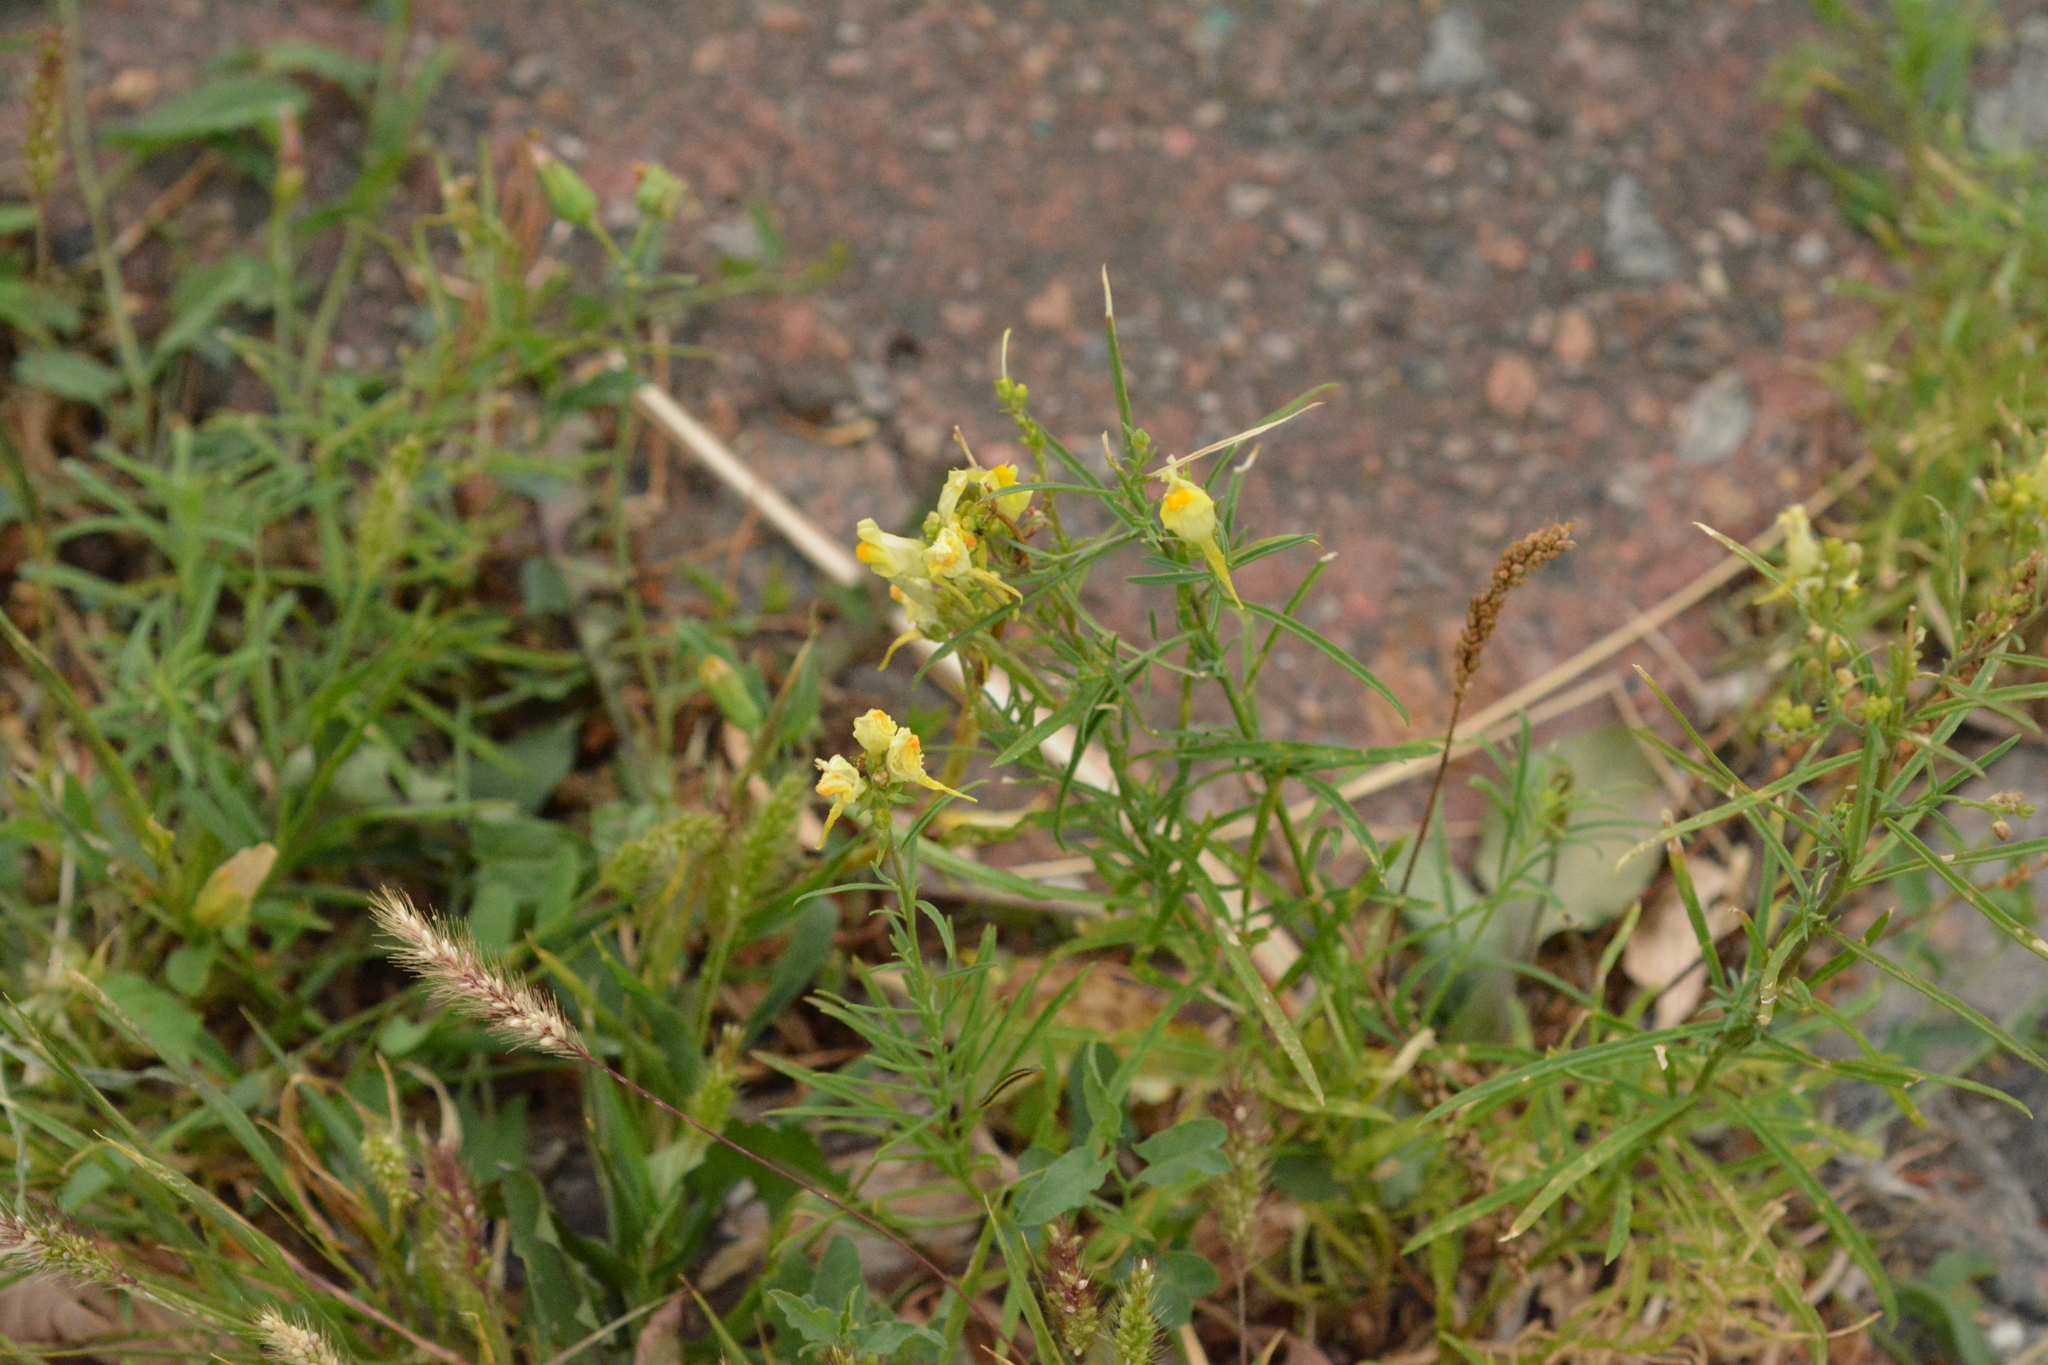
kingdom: Plantae
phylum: Tracheophyta
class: Magnoliopsida
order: Lamiales
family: Plantaginaceae
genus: Linaria
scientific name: Linaria vulgaris
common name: Butter and eggs
